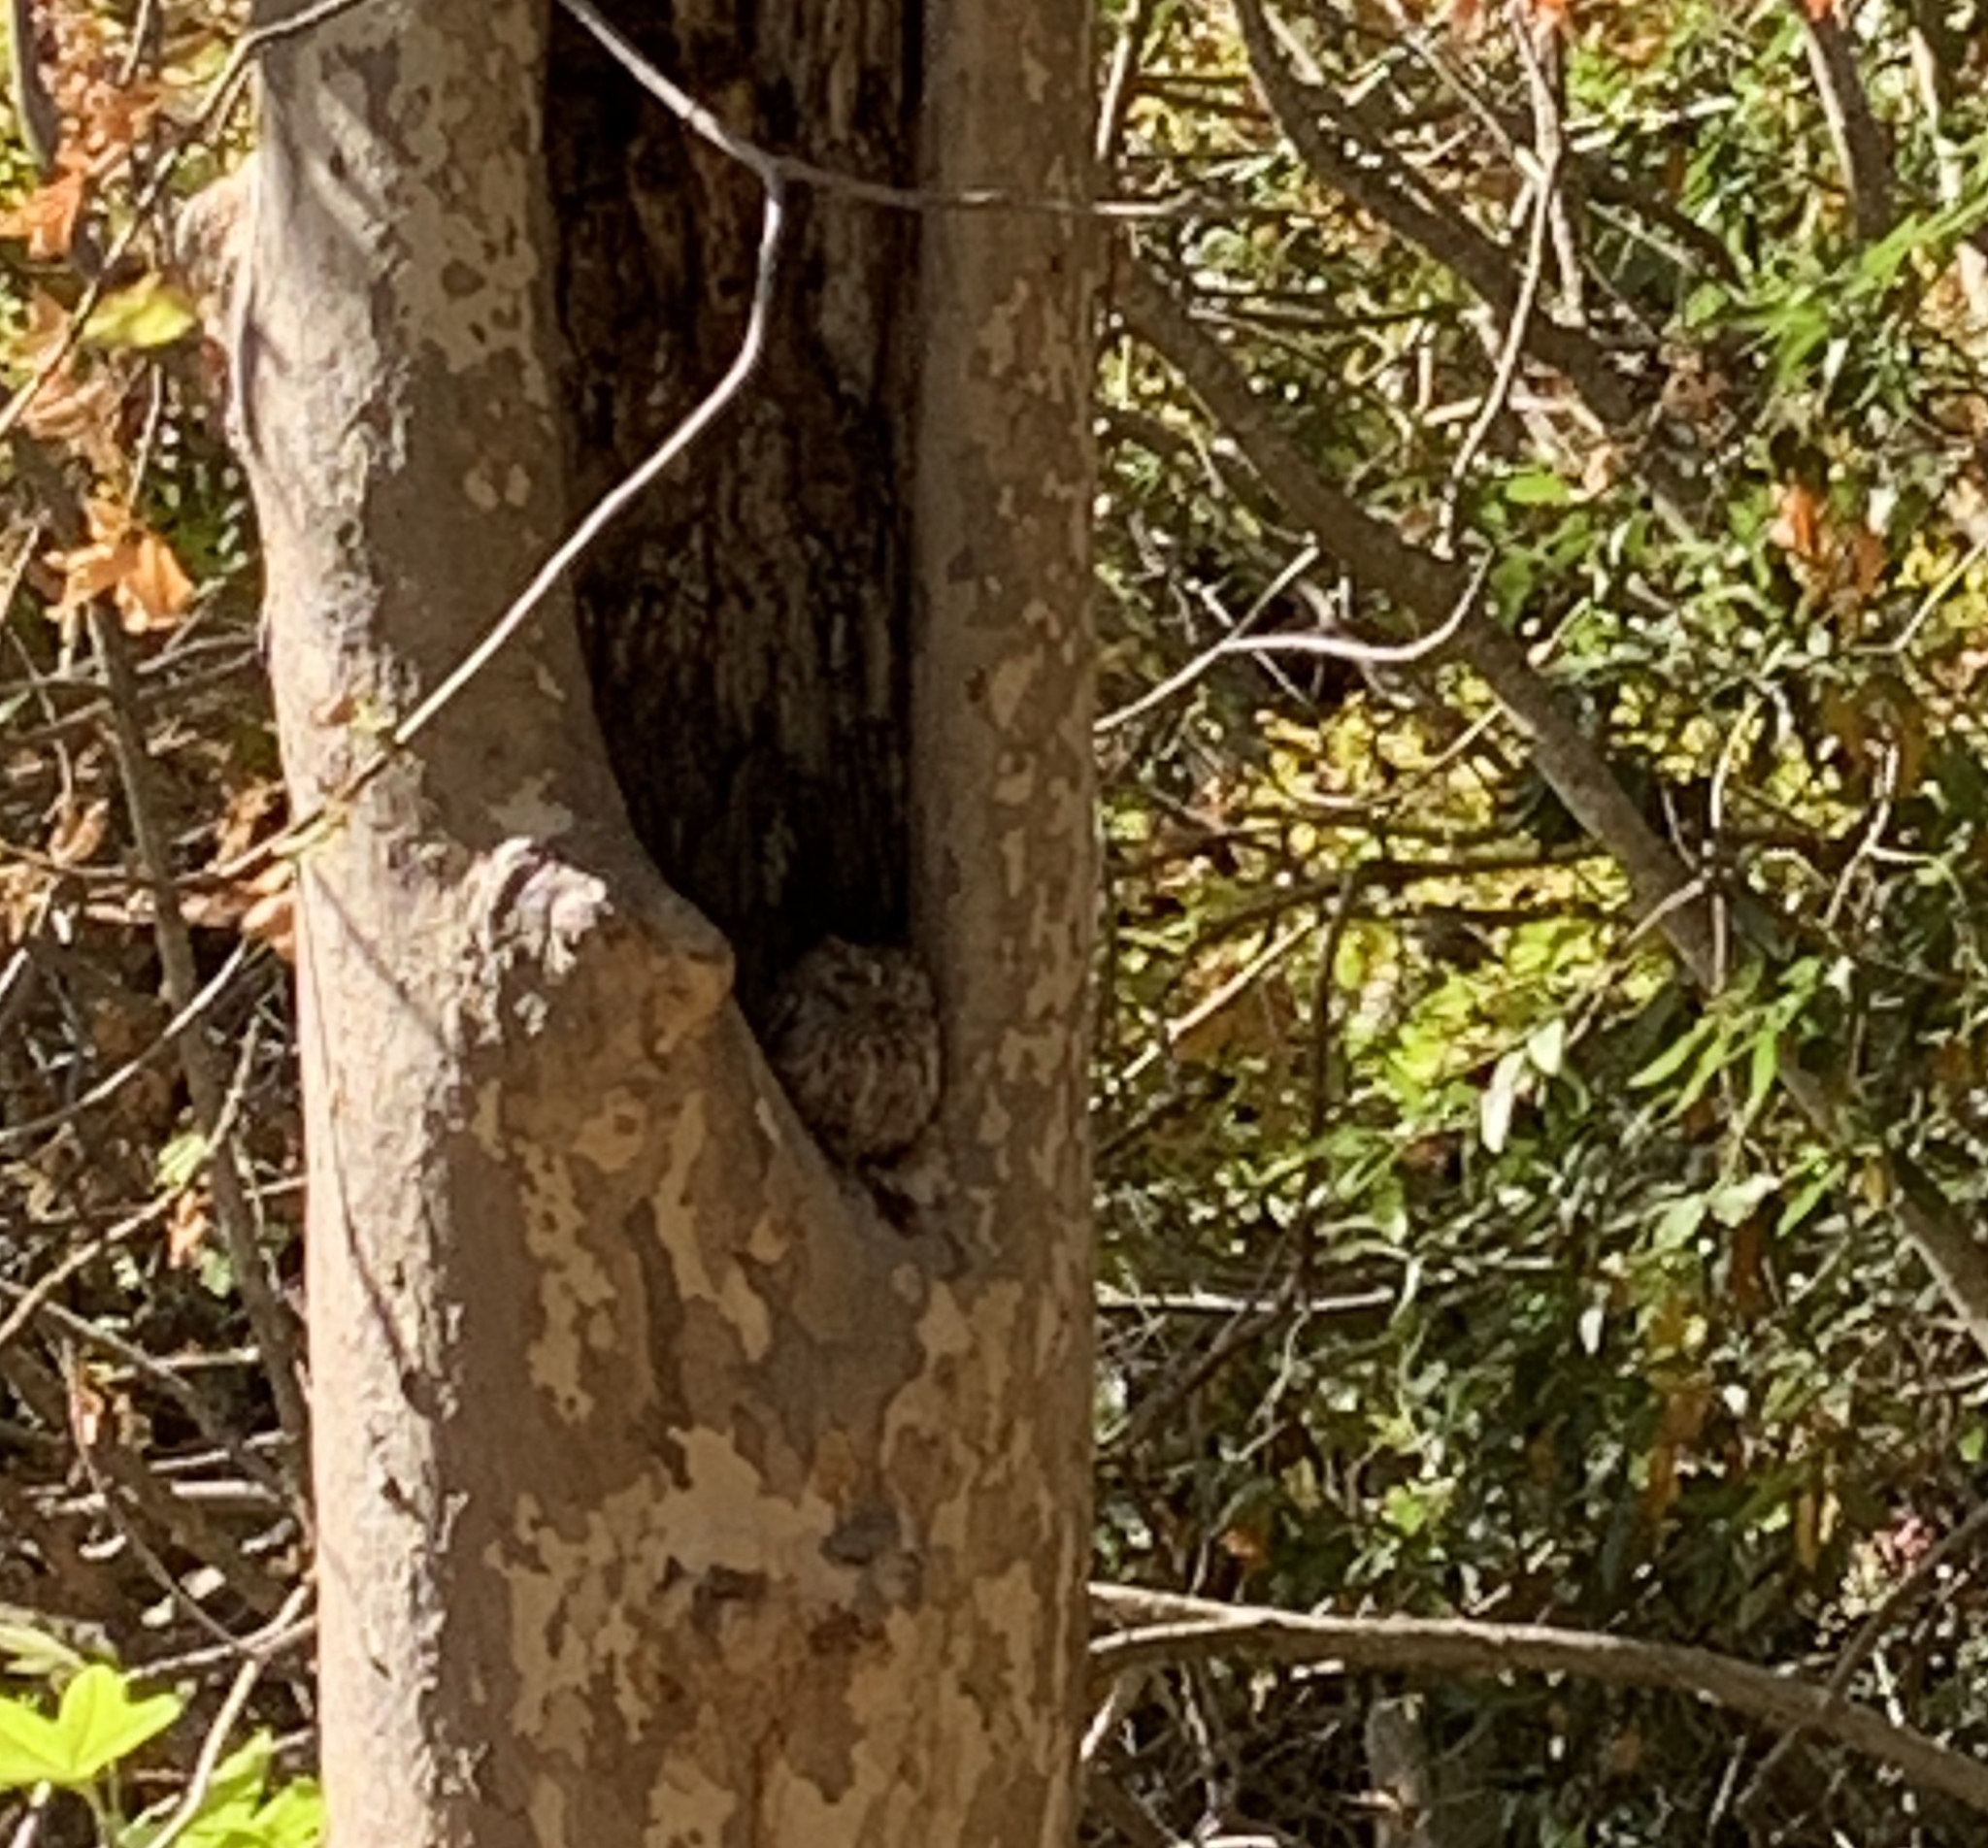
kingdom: Animalia
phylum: Chordata
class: Aves
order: Strigiformes
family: Strigidae
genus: Megascops
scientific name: Megascops kennicottii
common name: Western screech-owl
